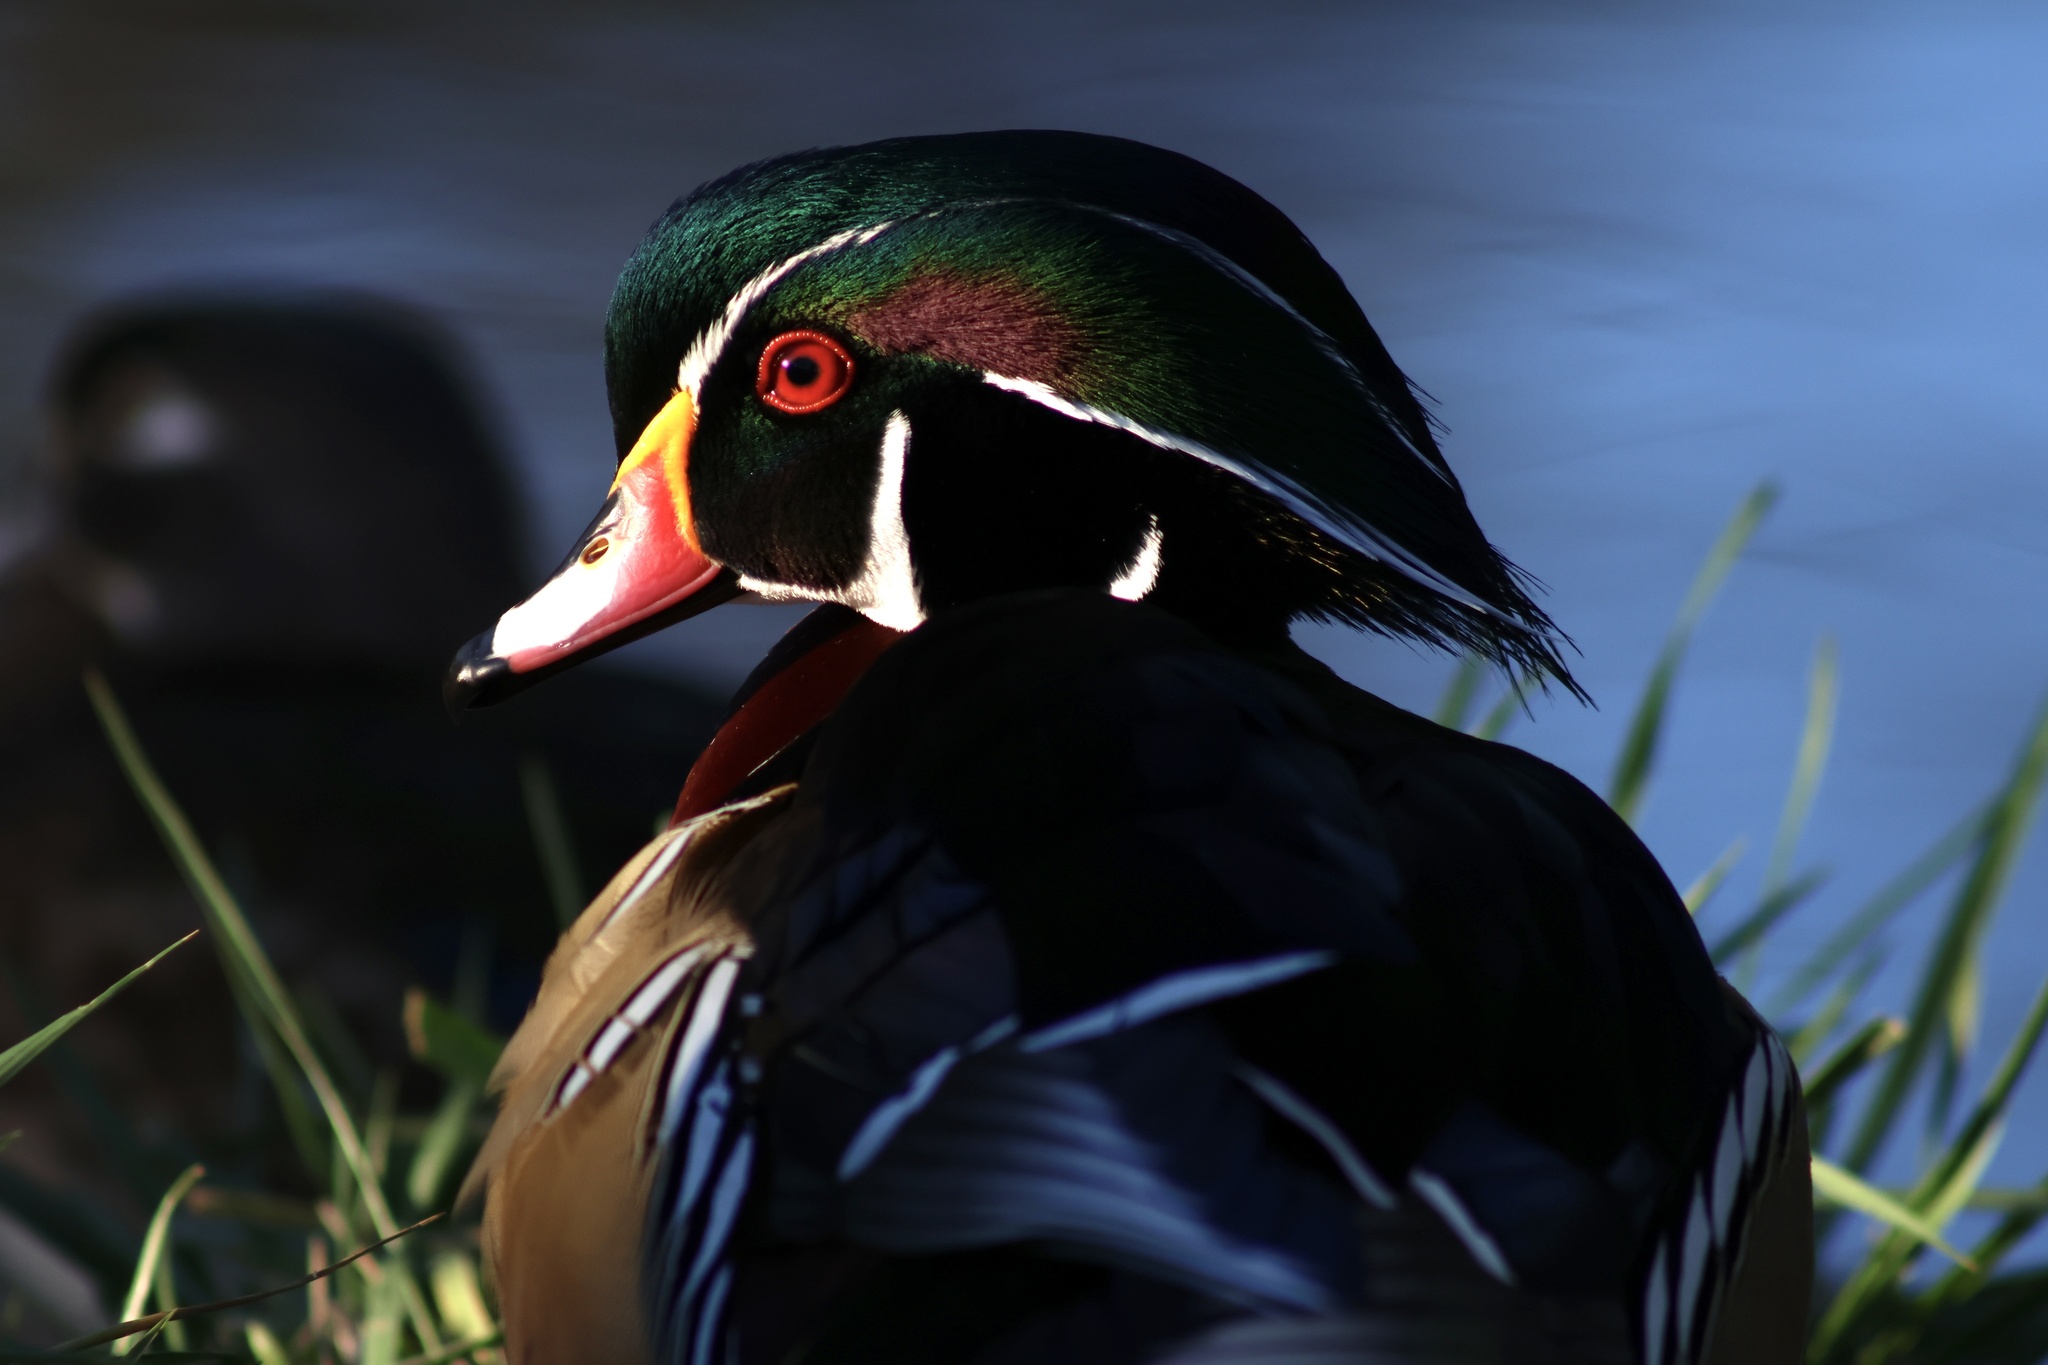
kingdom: Animalia
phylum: Chordata
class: Aves
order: Anseriformes
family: Anatidae
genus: Aix
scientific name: Aix sponsa
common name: Wood duck
